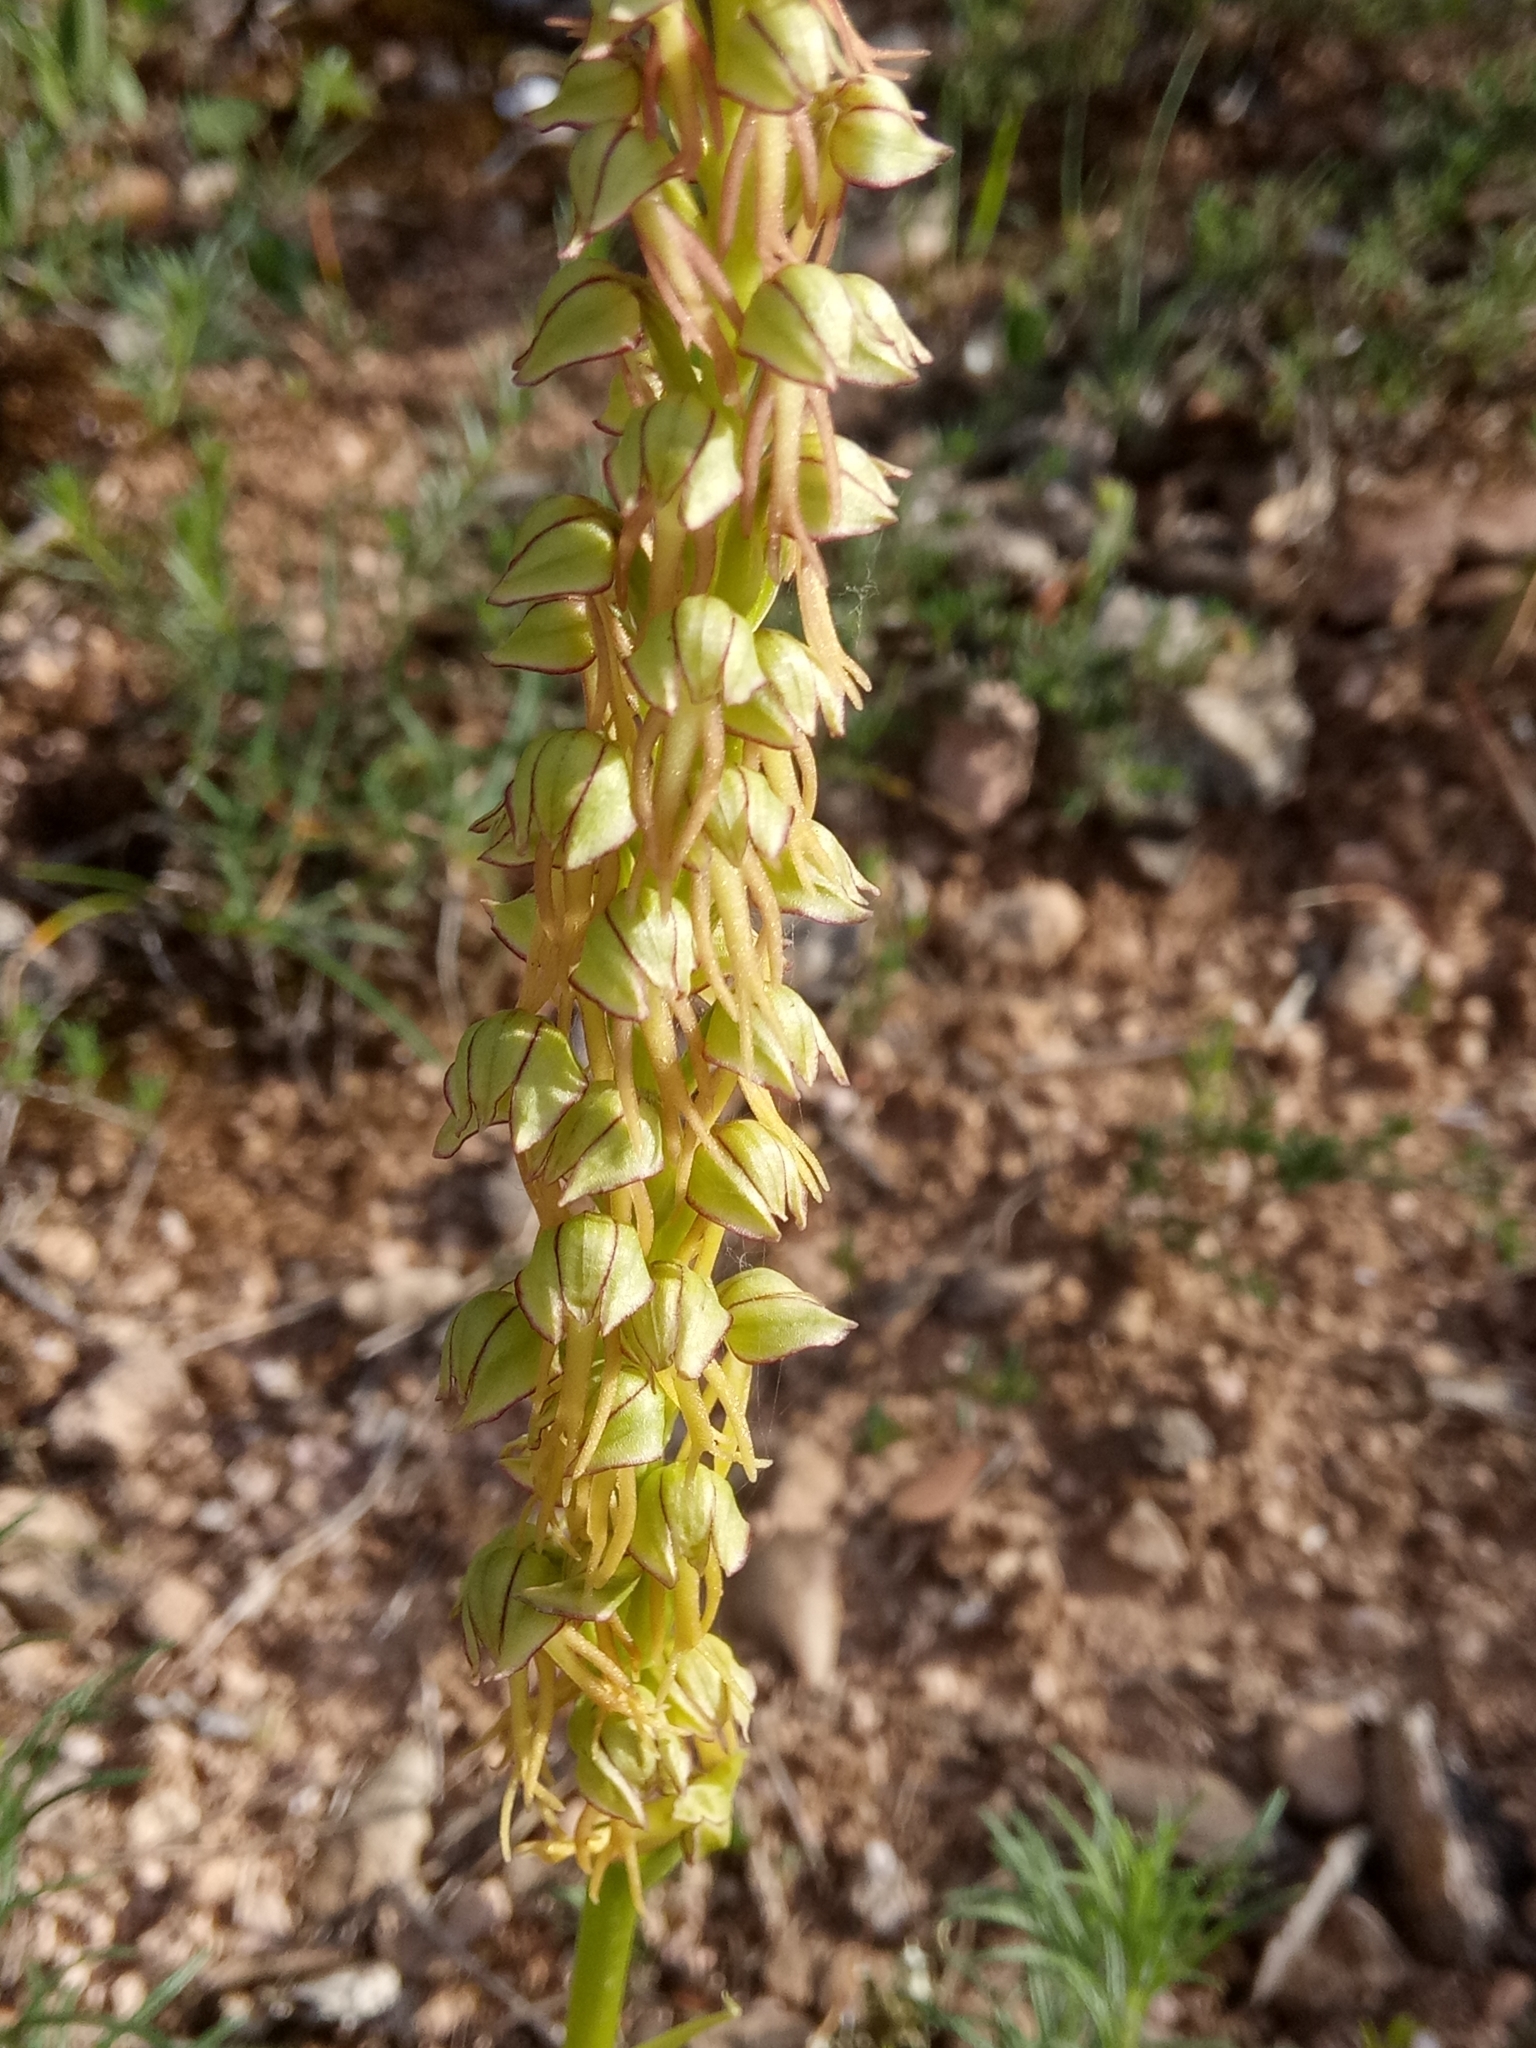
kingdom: Plantae
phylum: Tracheophyta
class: Liliopsida
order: Asparagales
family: Orchidaceae
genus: Orchis
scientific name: Orchis anthropophora
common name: Man orchid
